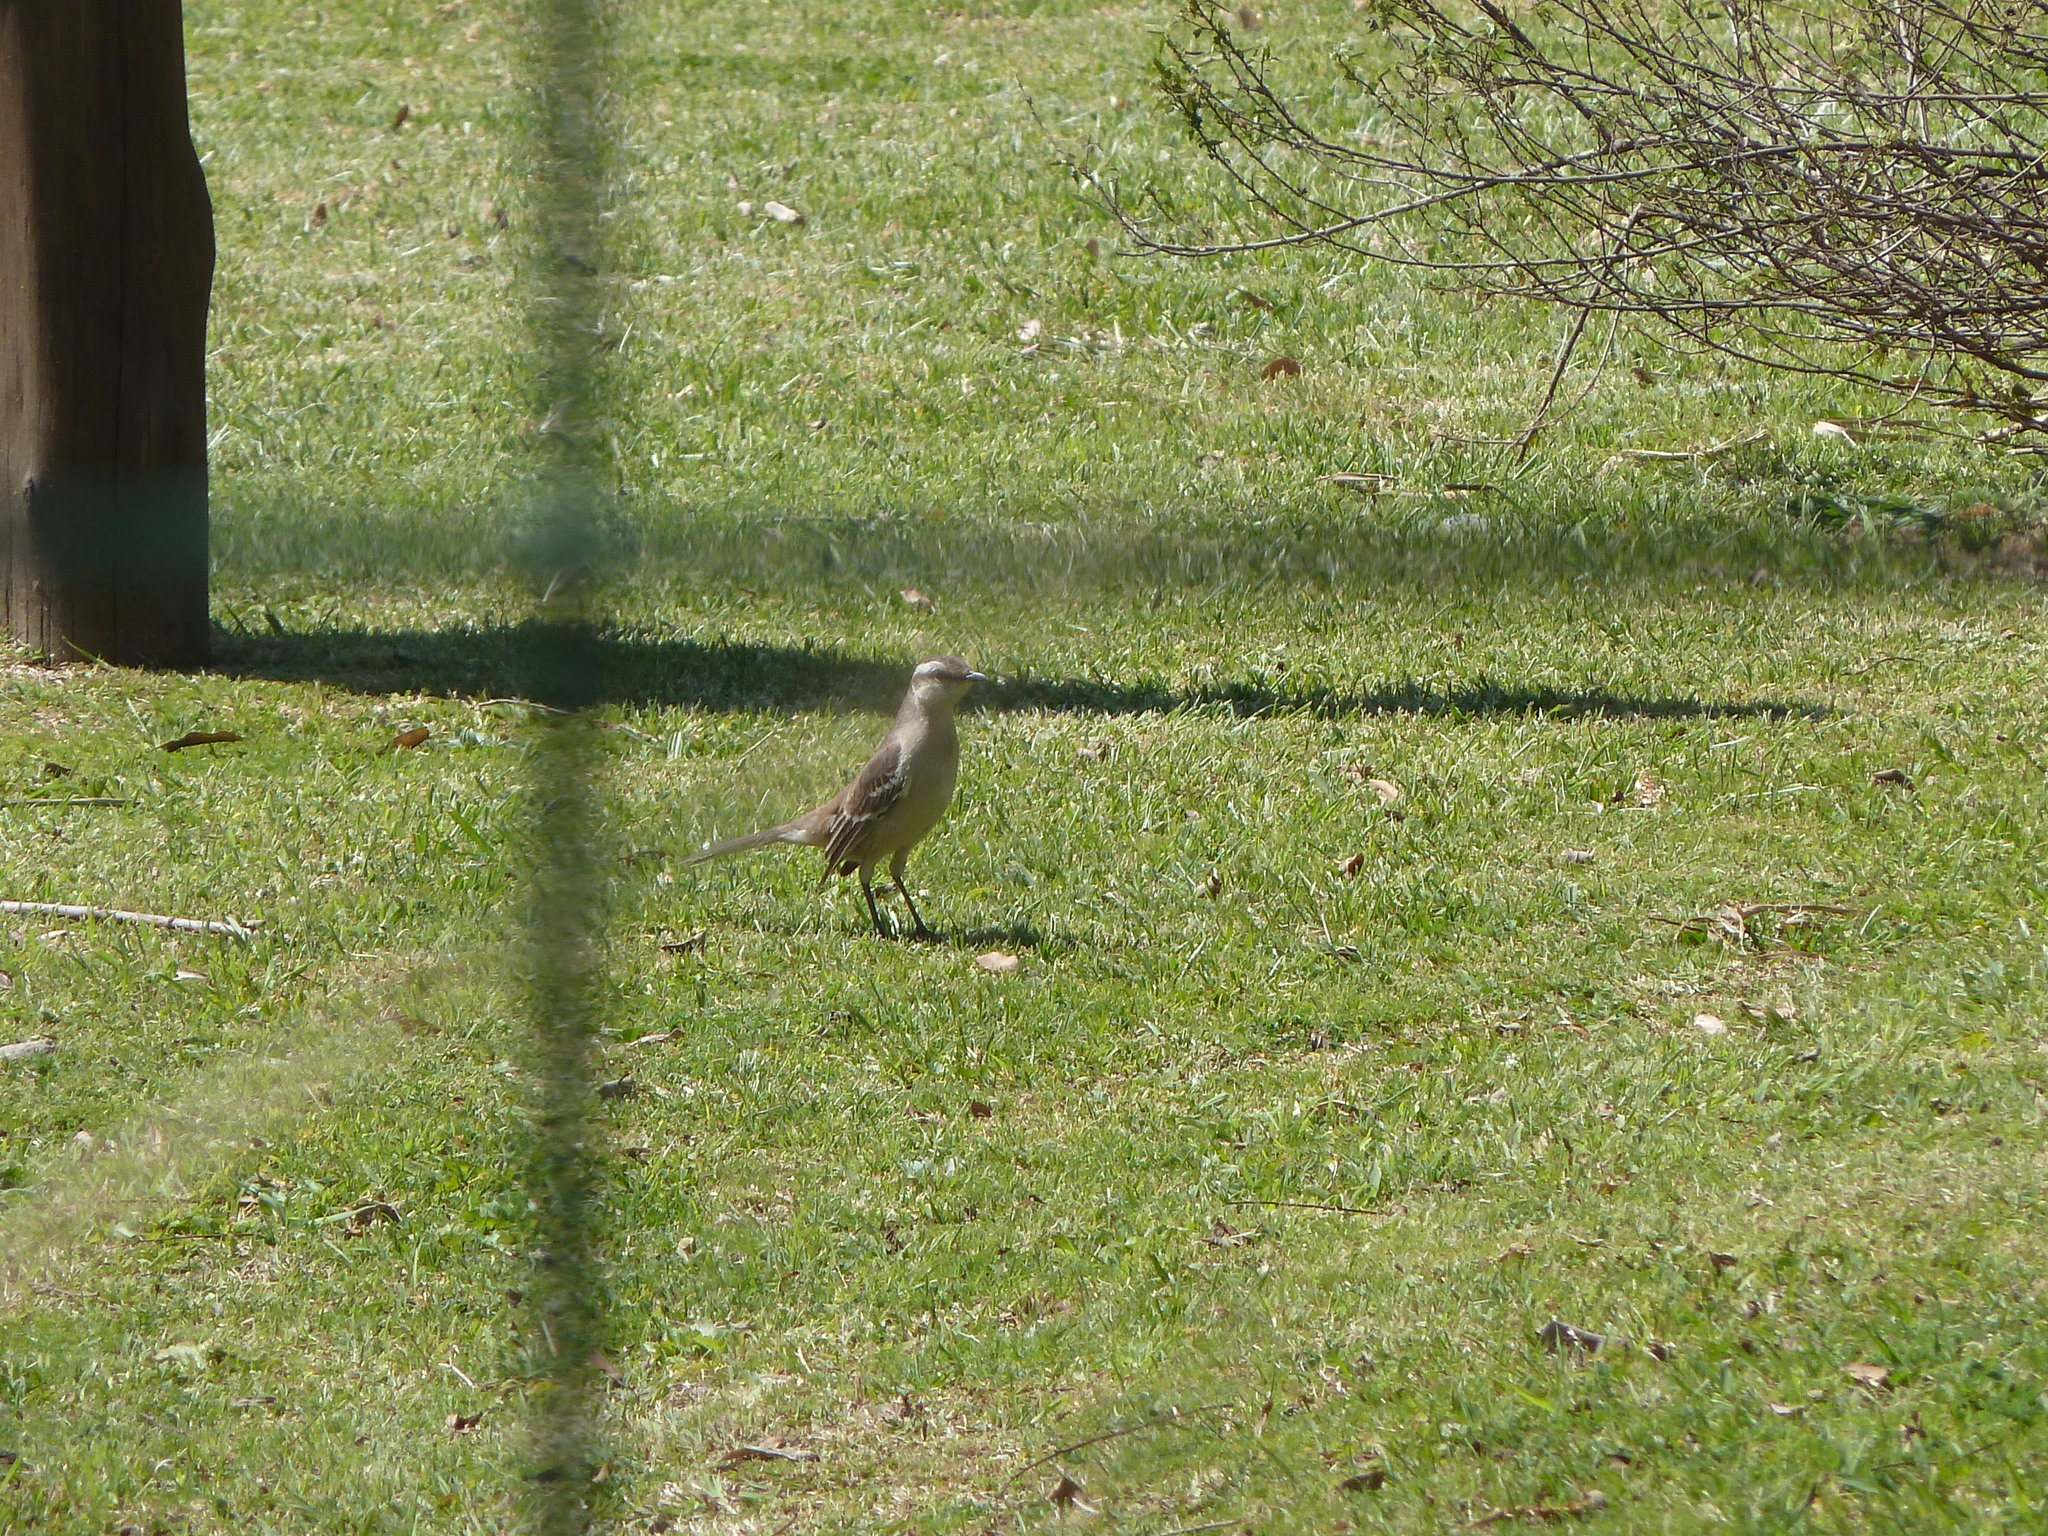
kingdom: Animalia
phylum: Chordata
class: Aves
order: Passeriformes
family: Mimidae
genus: Mimus
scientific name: Mimus saturninus
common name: Chalk-browed mockingbird
